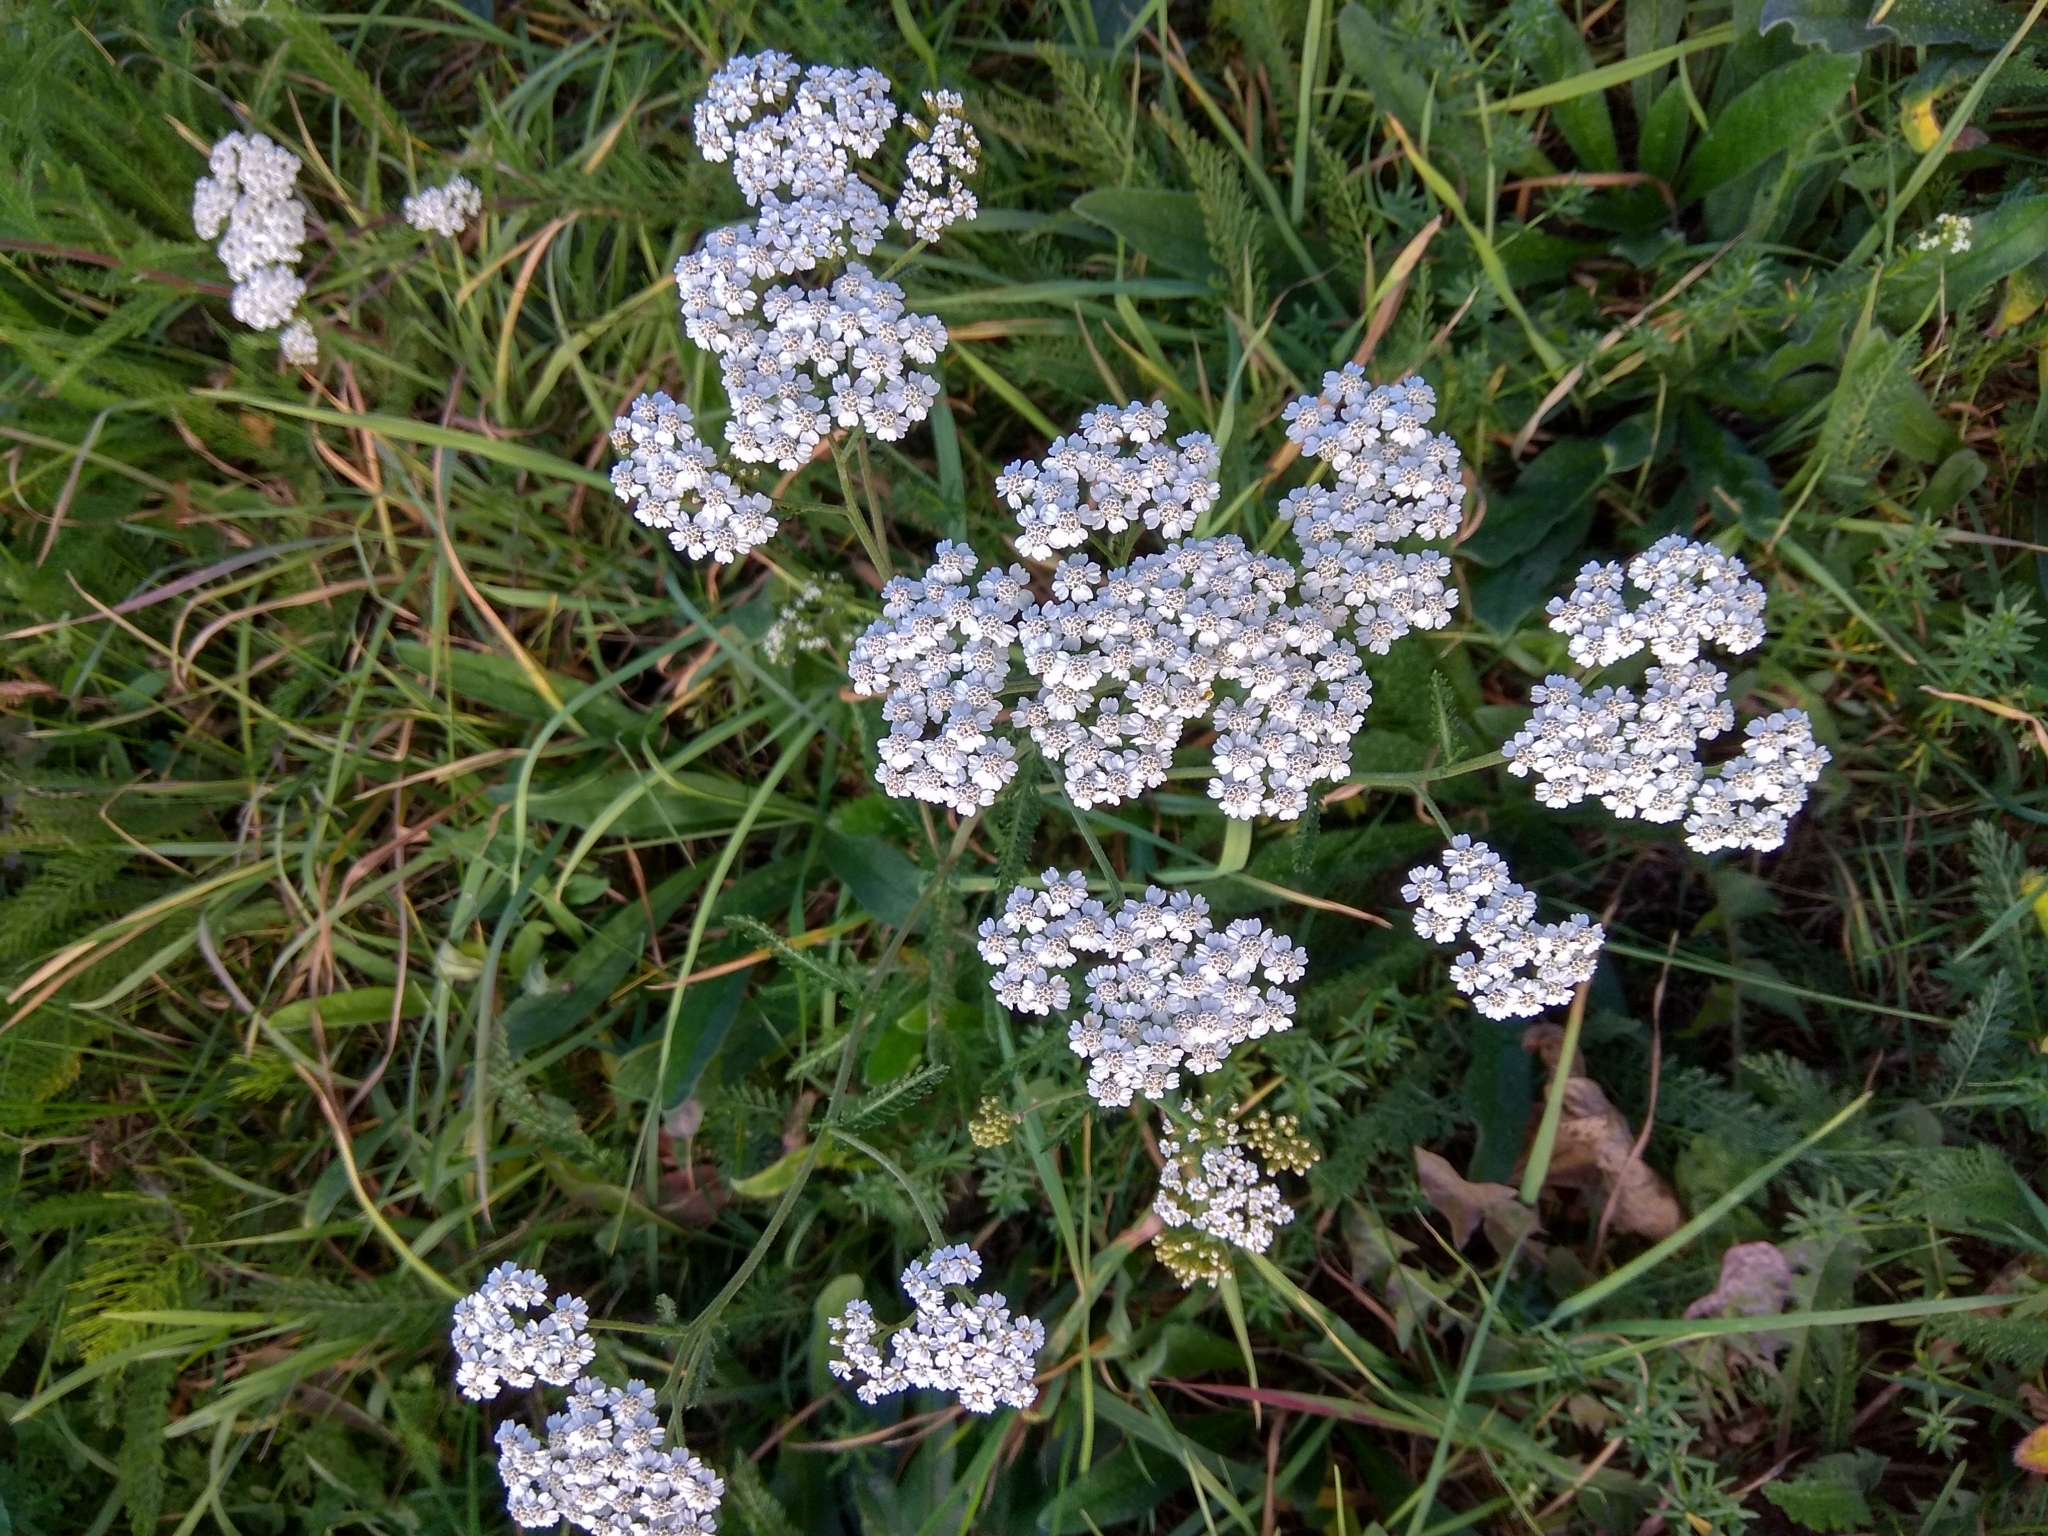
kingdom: Plantae
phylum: Tracheophyta
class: Magnoliopsida
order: Asterales
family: Asteraceae
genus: Achillea
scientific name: Achillea millefolium
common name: Yarrow
